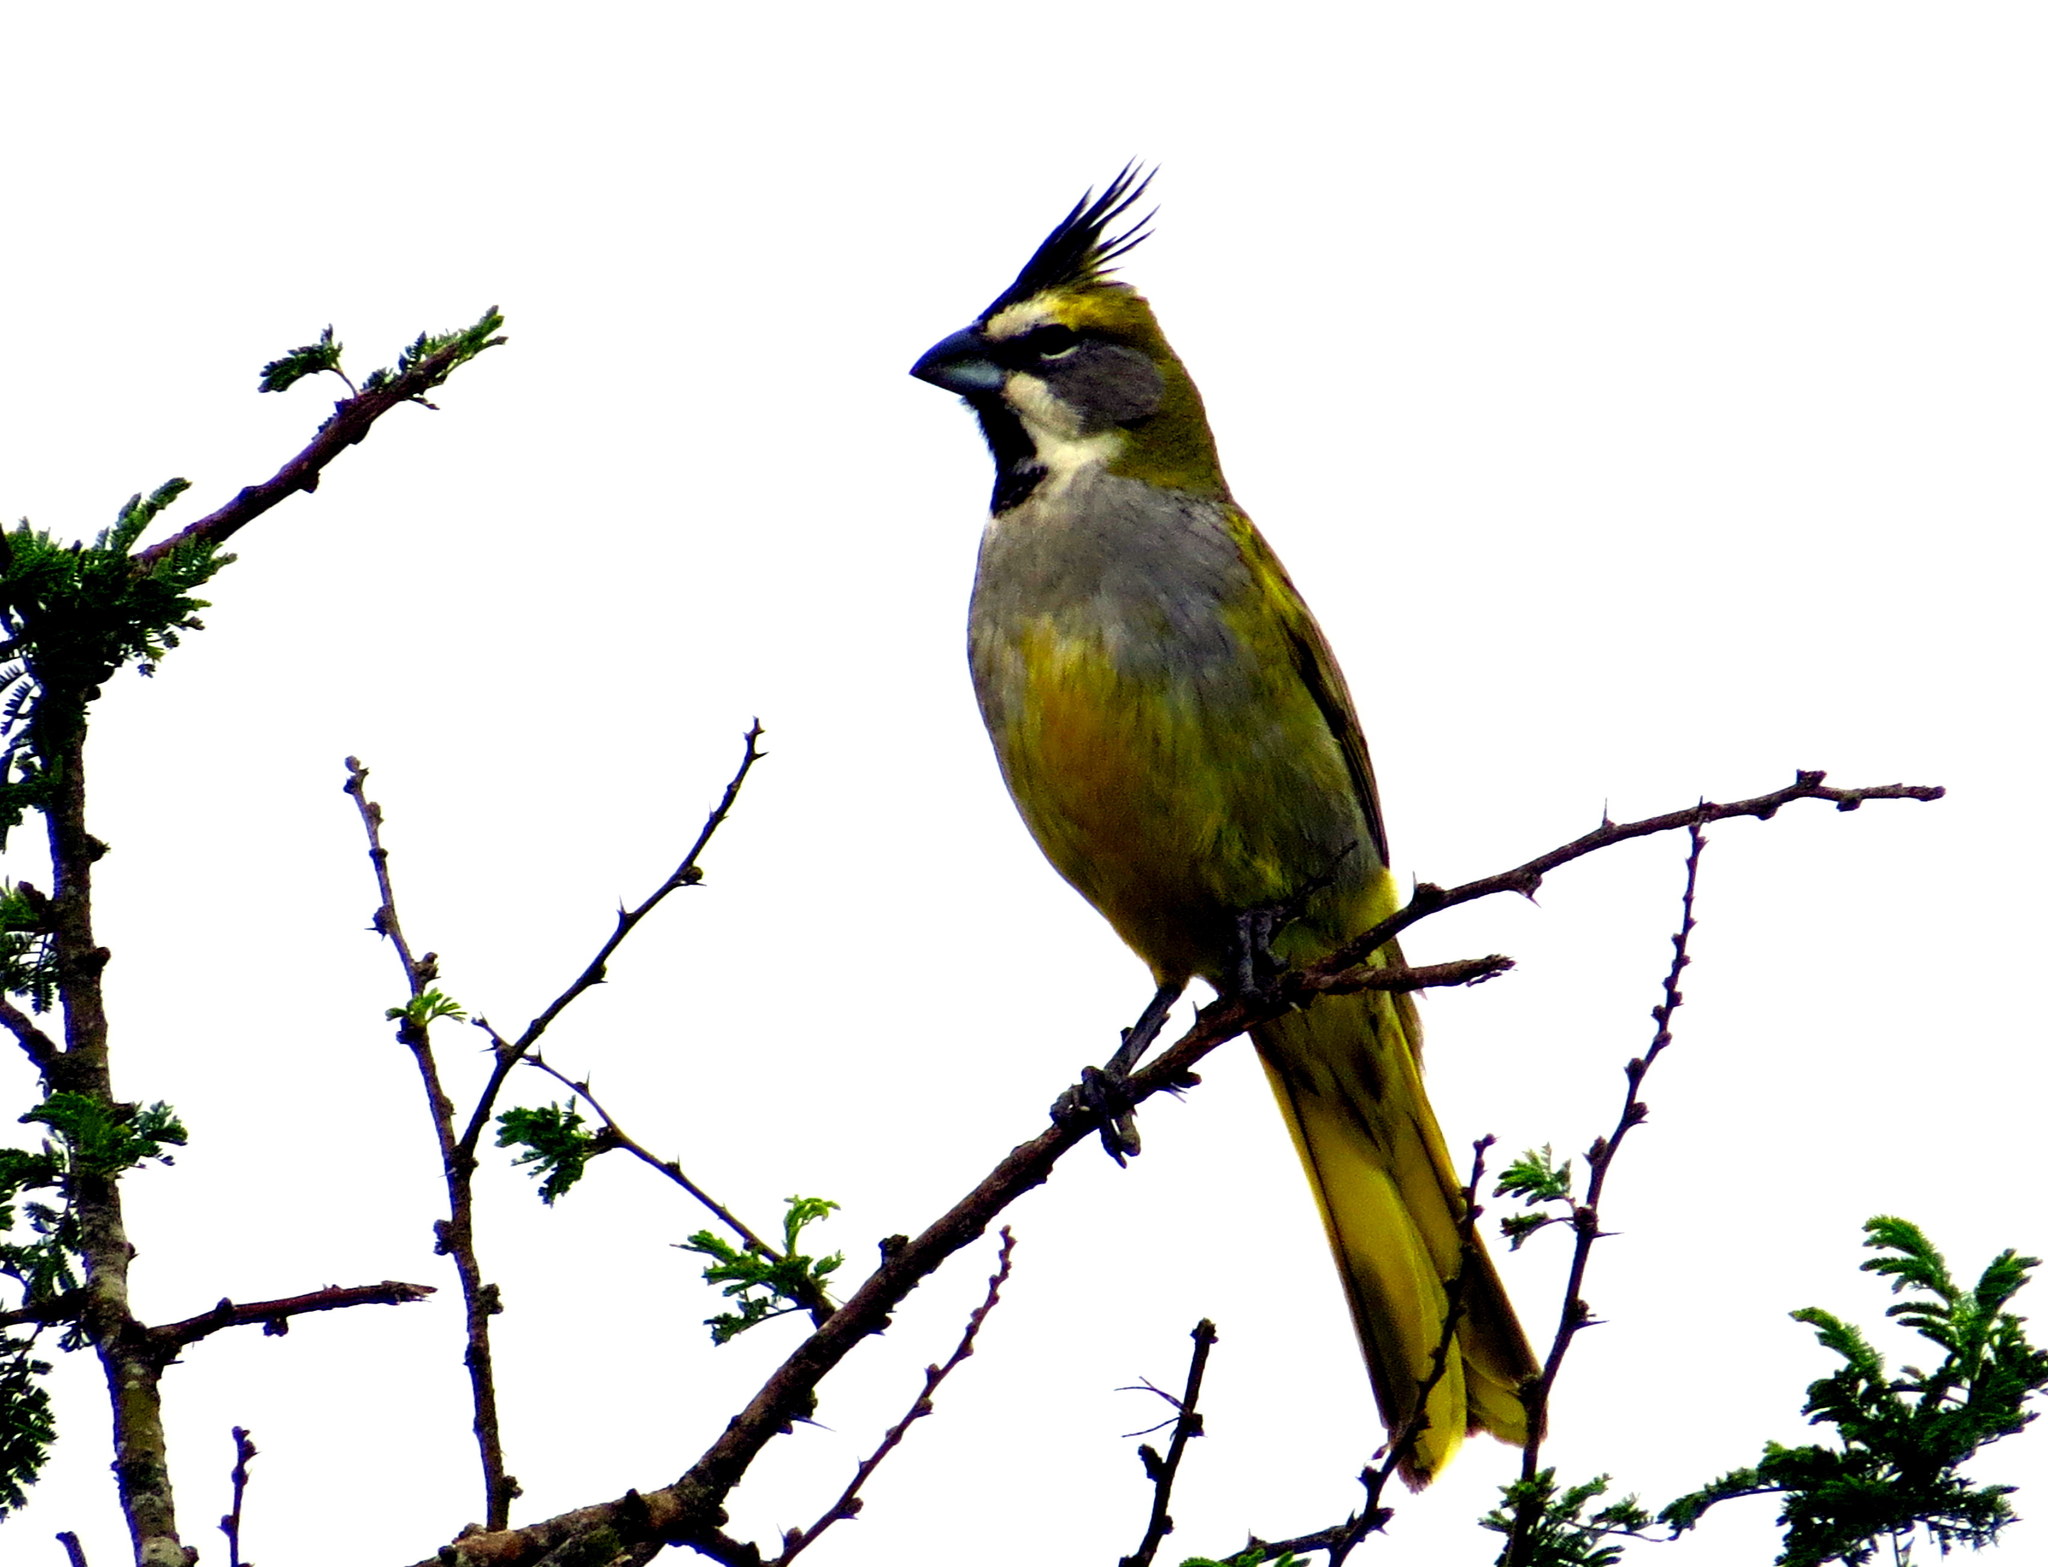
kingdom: Animalia
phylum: Chordata
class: Aves
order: Passeriformes
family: Thraupidae
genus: Gubernatrix
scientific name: Gubernatrix cristata
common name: Yellow cardinal
